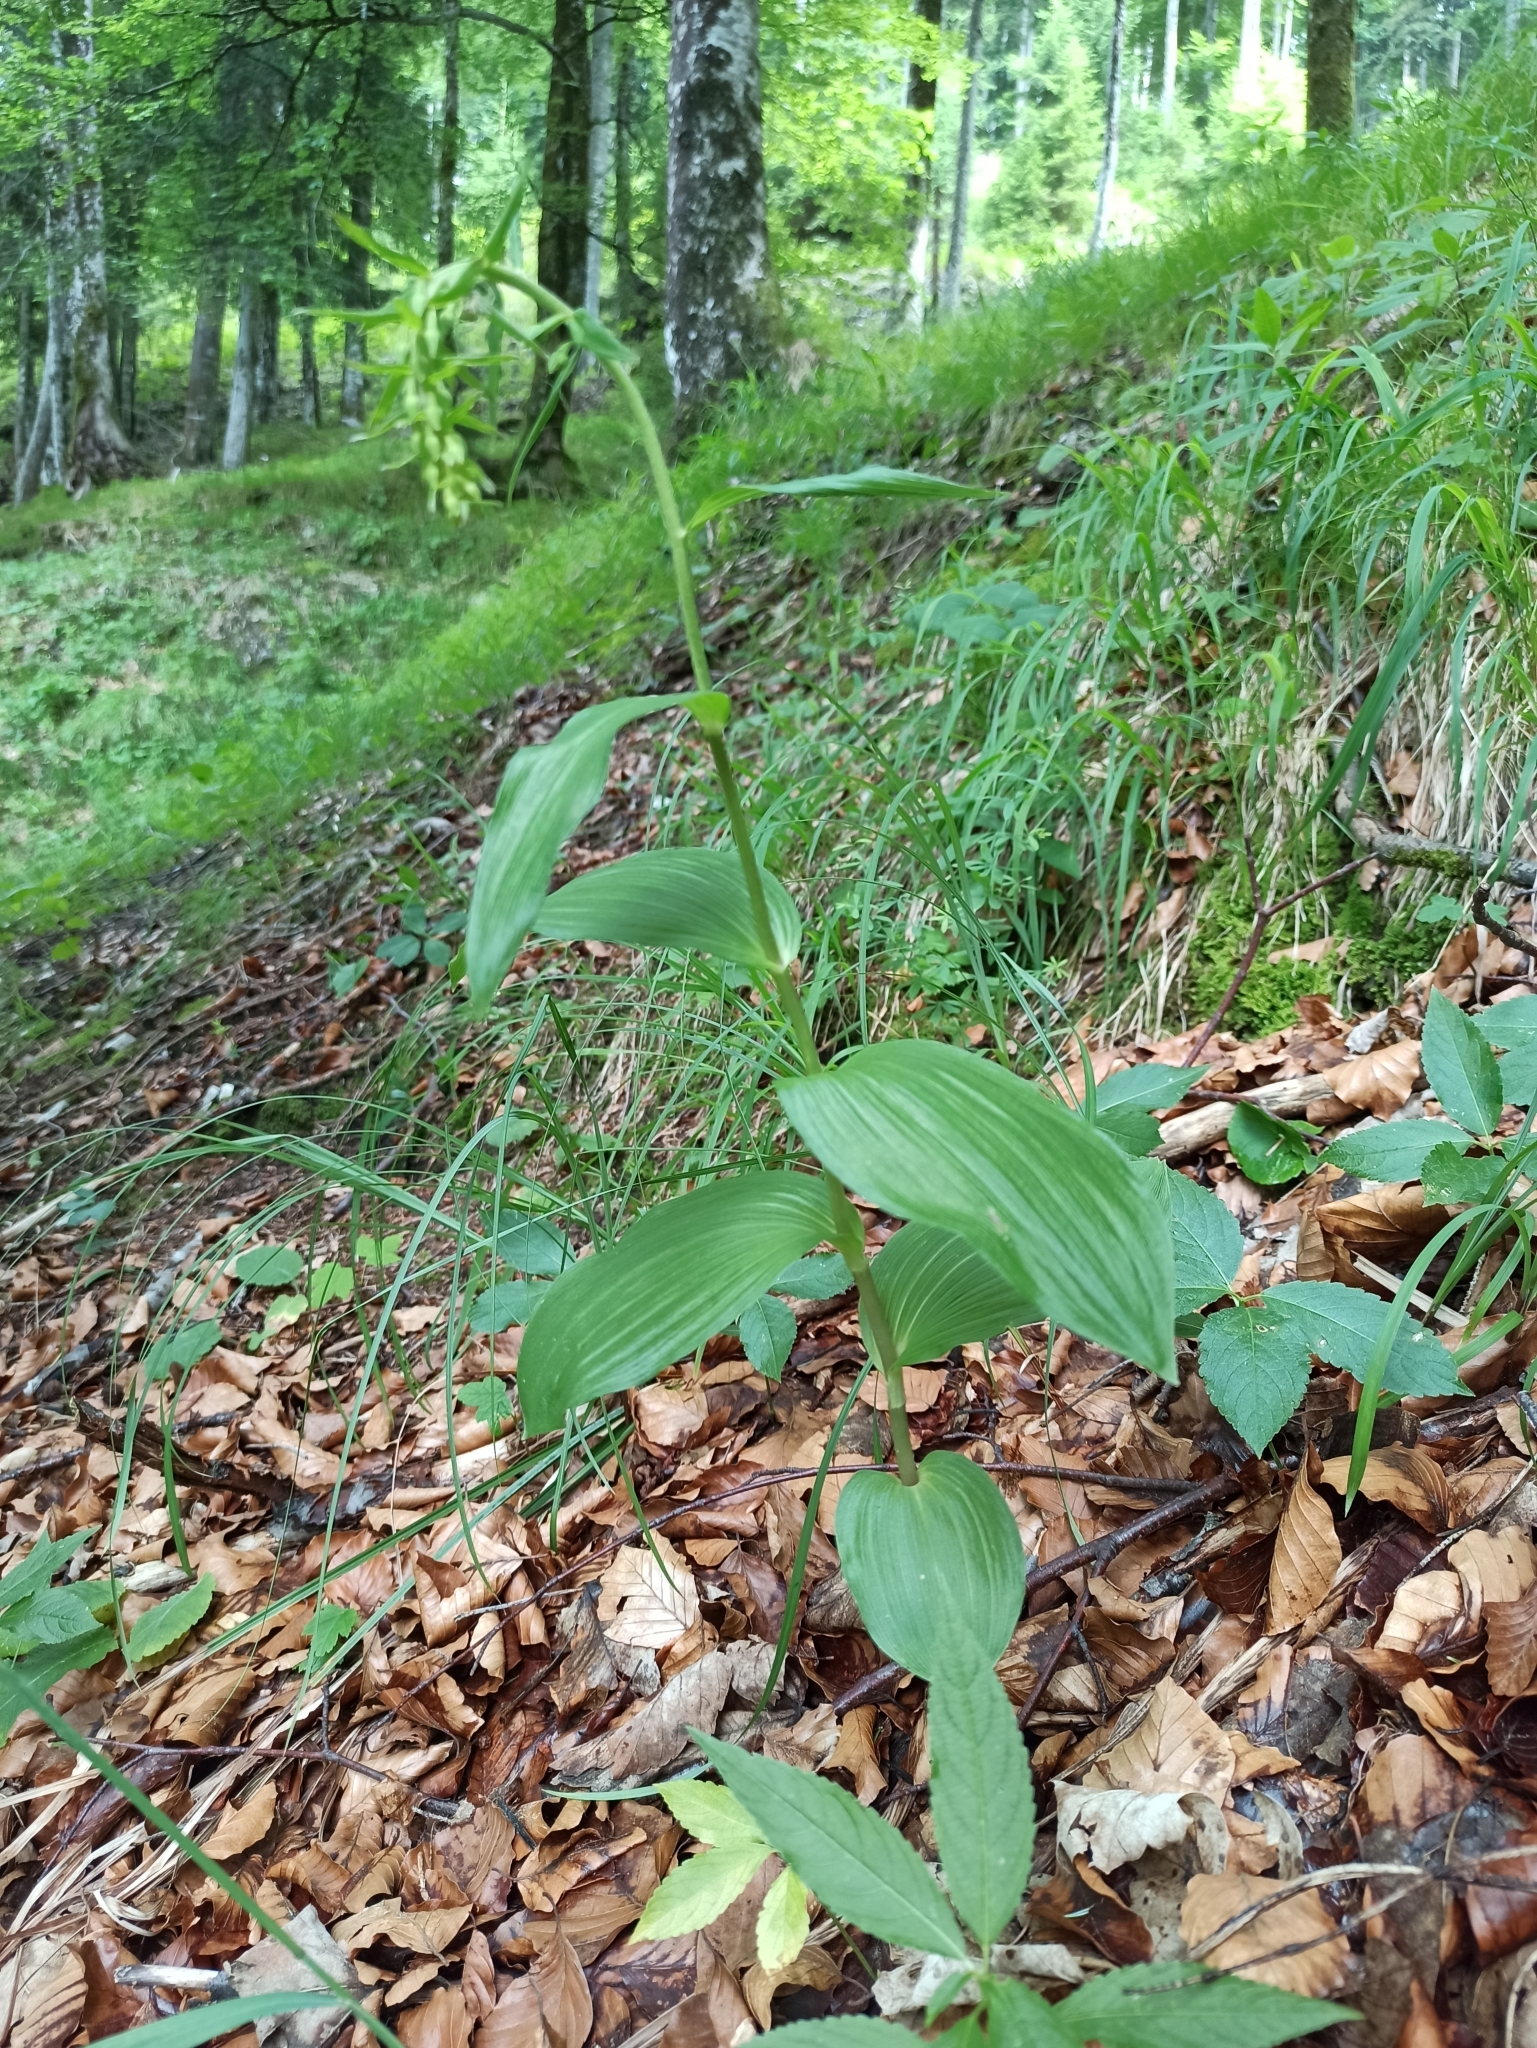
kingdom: Plantae
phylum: Tracheophyta
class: Liliopsida
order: Asparagales
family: Orchidaceae
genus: Epipactis
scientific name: Epipactis helleborine
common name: Broad-leaved helleborine
